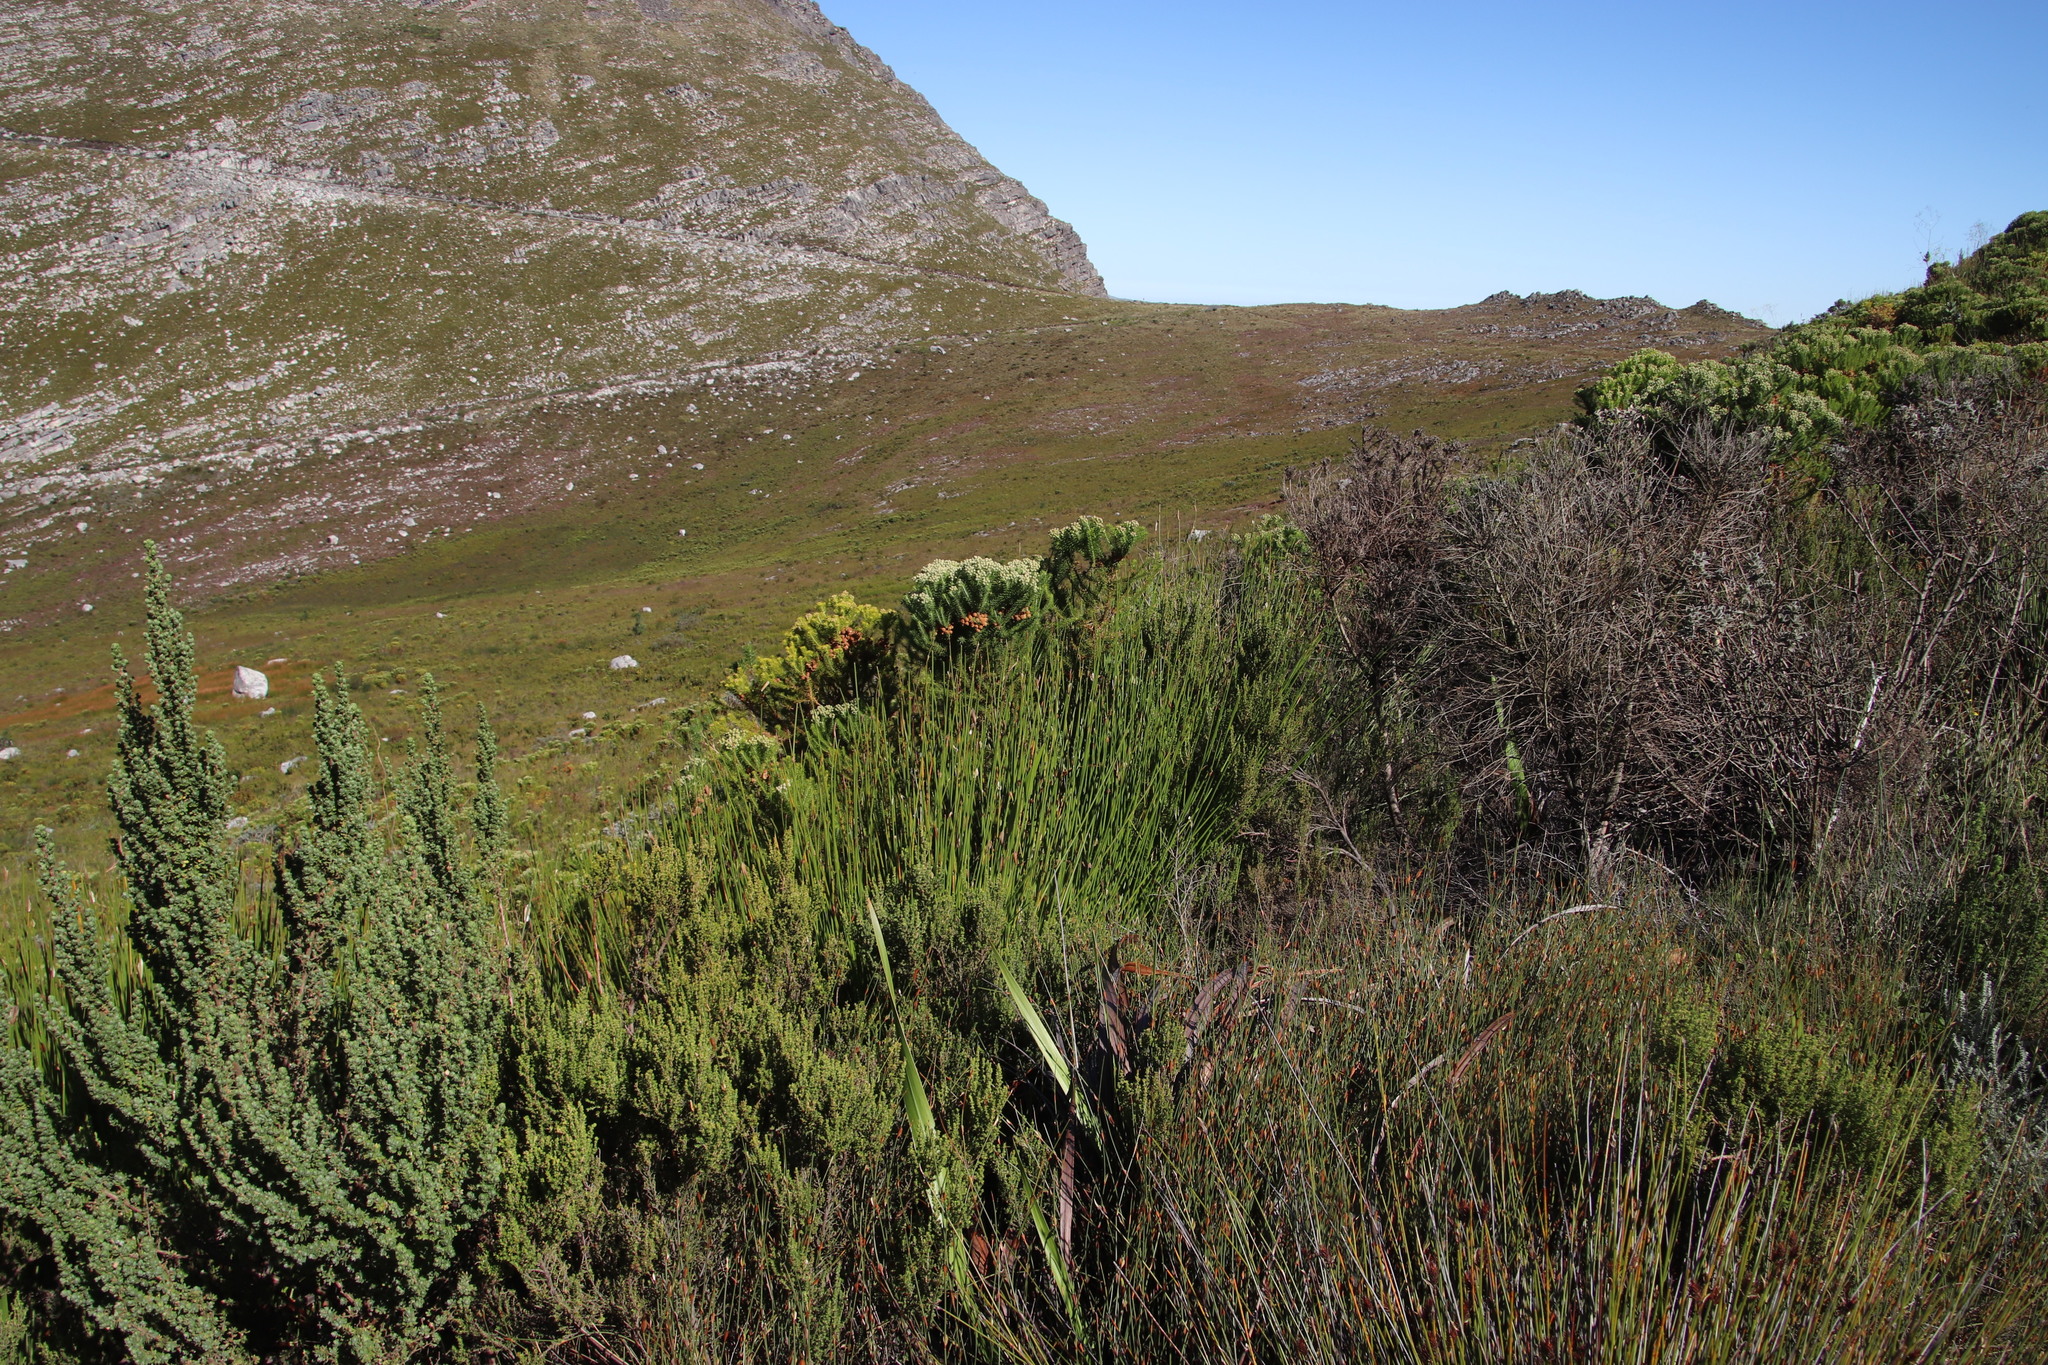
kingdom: Plantae
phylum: Tracheophyta
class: Liliopsida
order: Poales
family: Restionaceae
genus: Elegia
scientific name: Elegia thyrsifera
